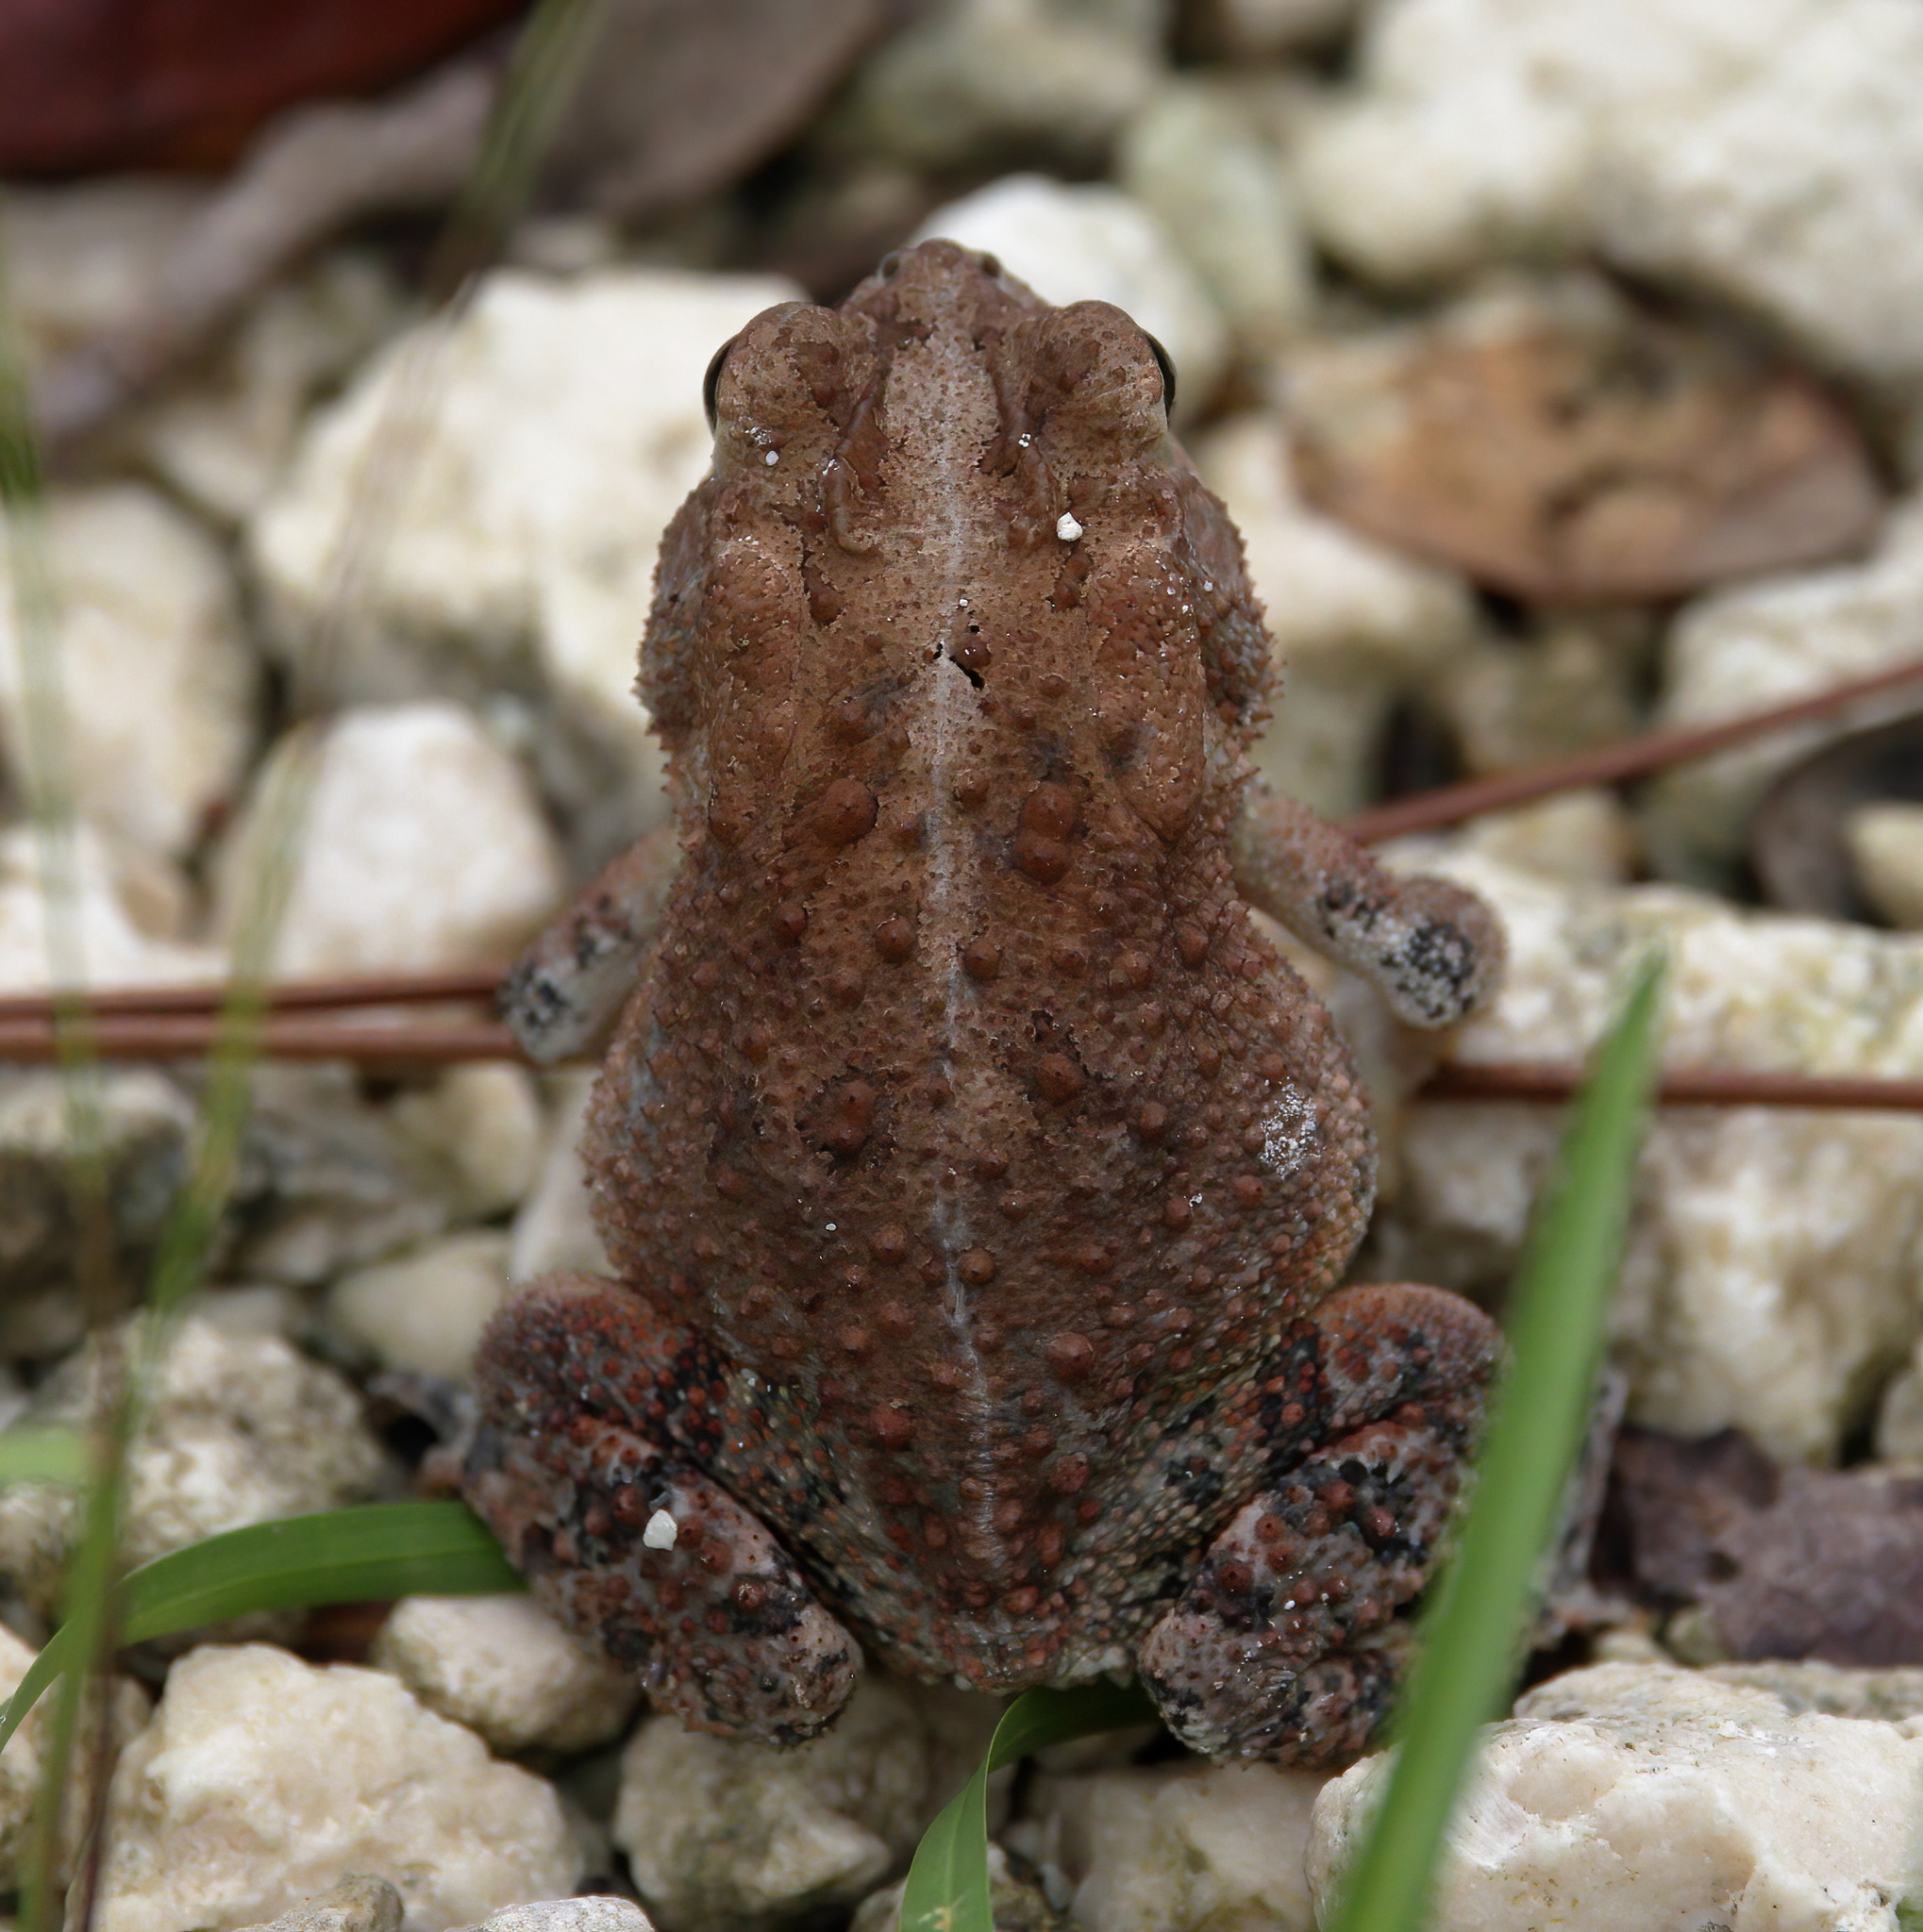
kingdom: Animalia
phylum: Chordata
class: Amphibia
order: Anura
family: Bufonidae
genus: Anaxyrus
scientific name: Anaxyrus terrestris
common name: Southern toad
